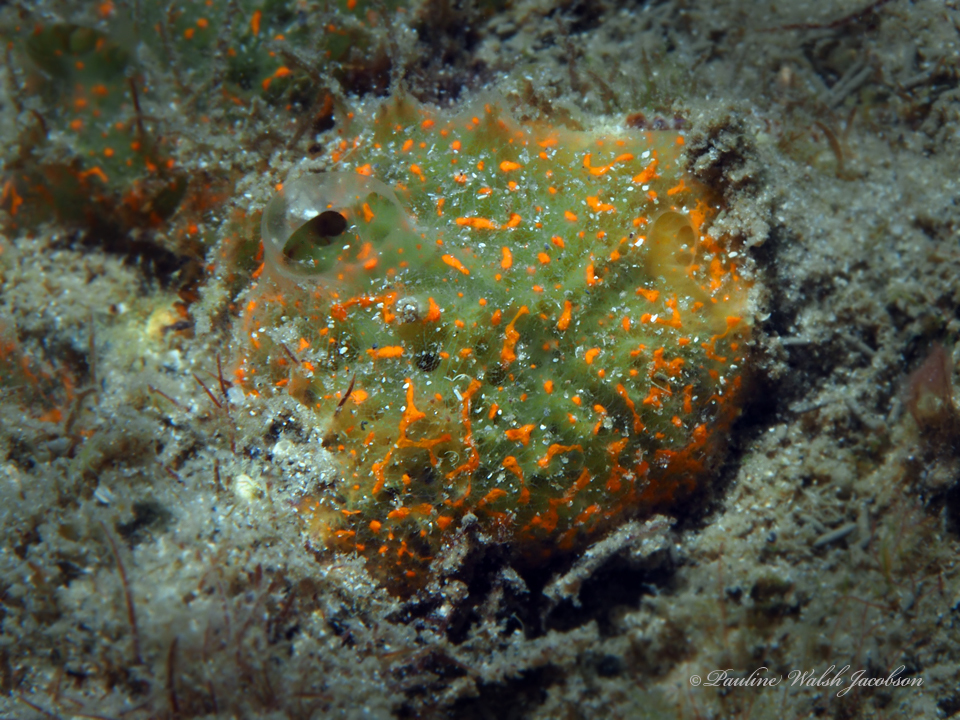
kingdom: Animalia
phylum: Porifera
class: Demospongiae
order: Poecilosclerida
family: Mycalidae
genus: Mycale
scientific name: Mycale microsigmatosa
